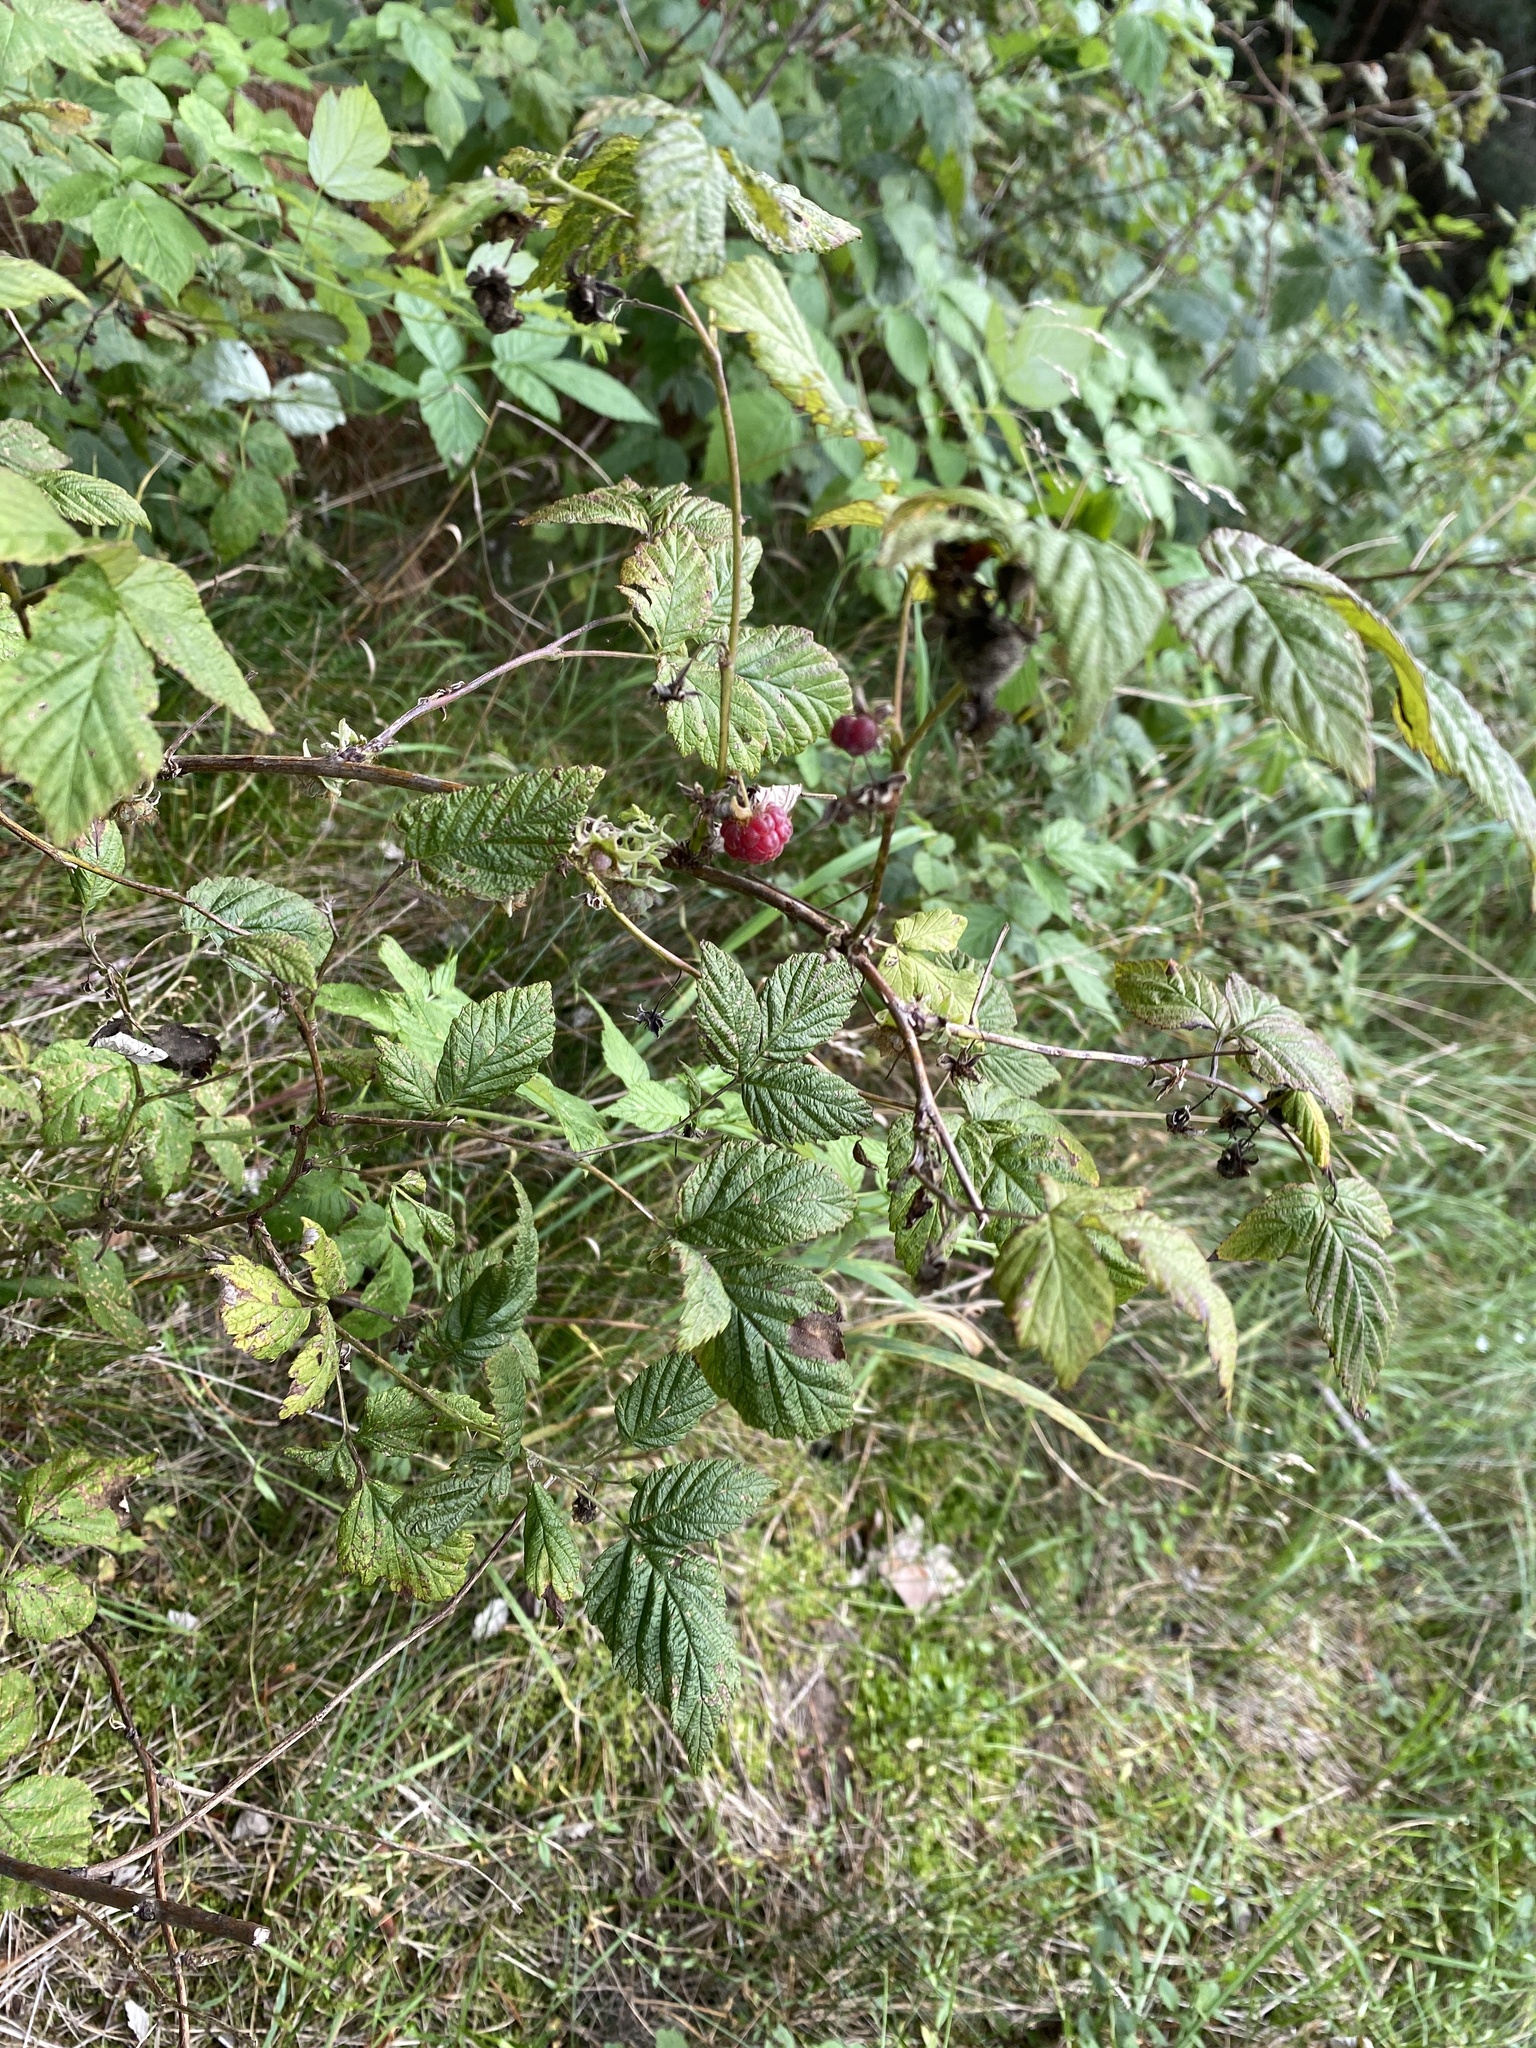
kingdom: Plantae
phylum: Tracheophyta
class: Magnoliopsida
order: Rosales
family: Rosaceae
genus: Rubus
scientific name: Rubus idaeus
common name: Raspberry
